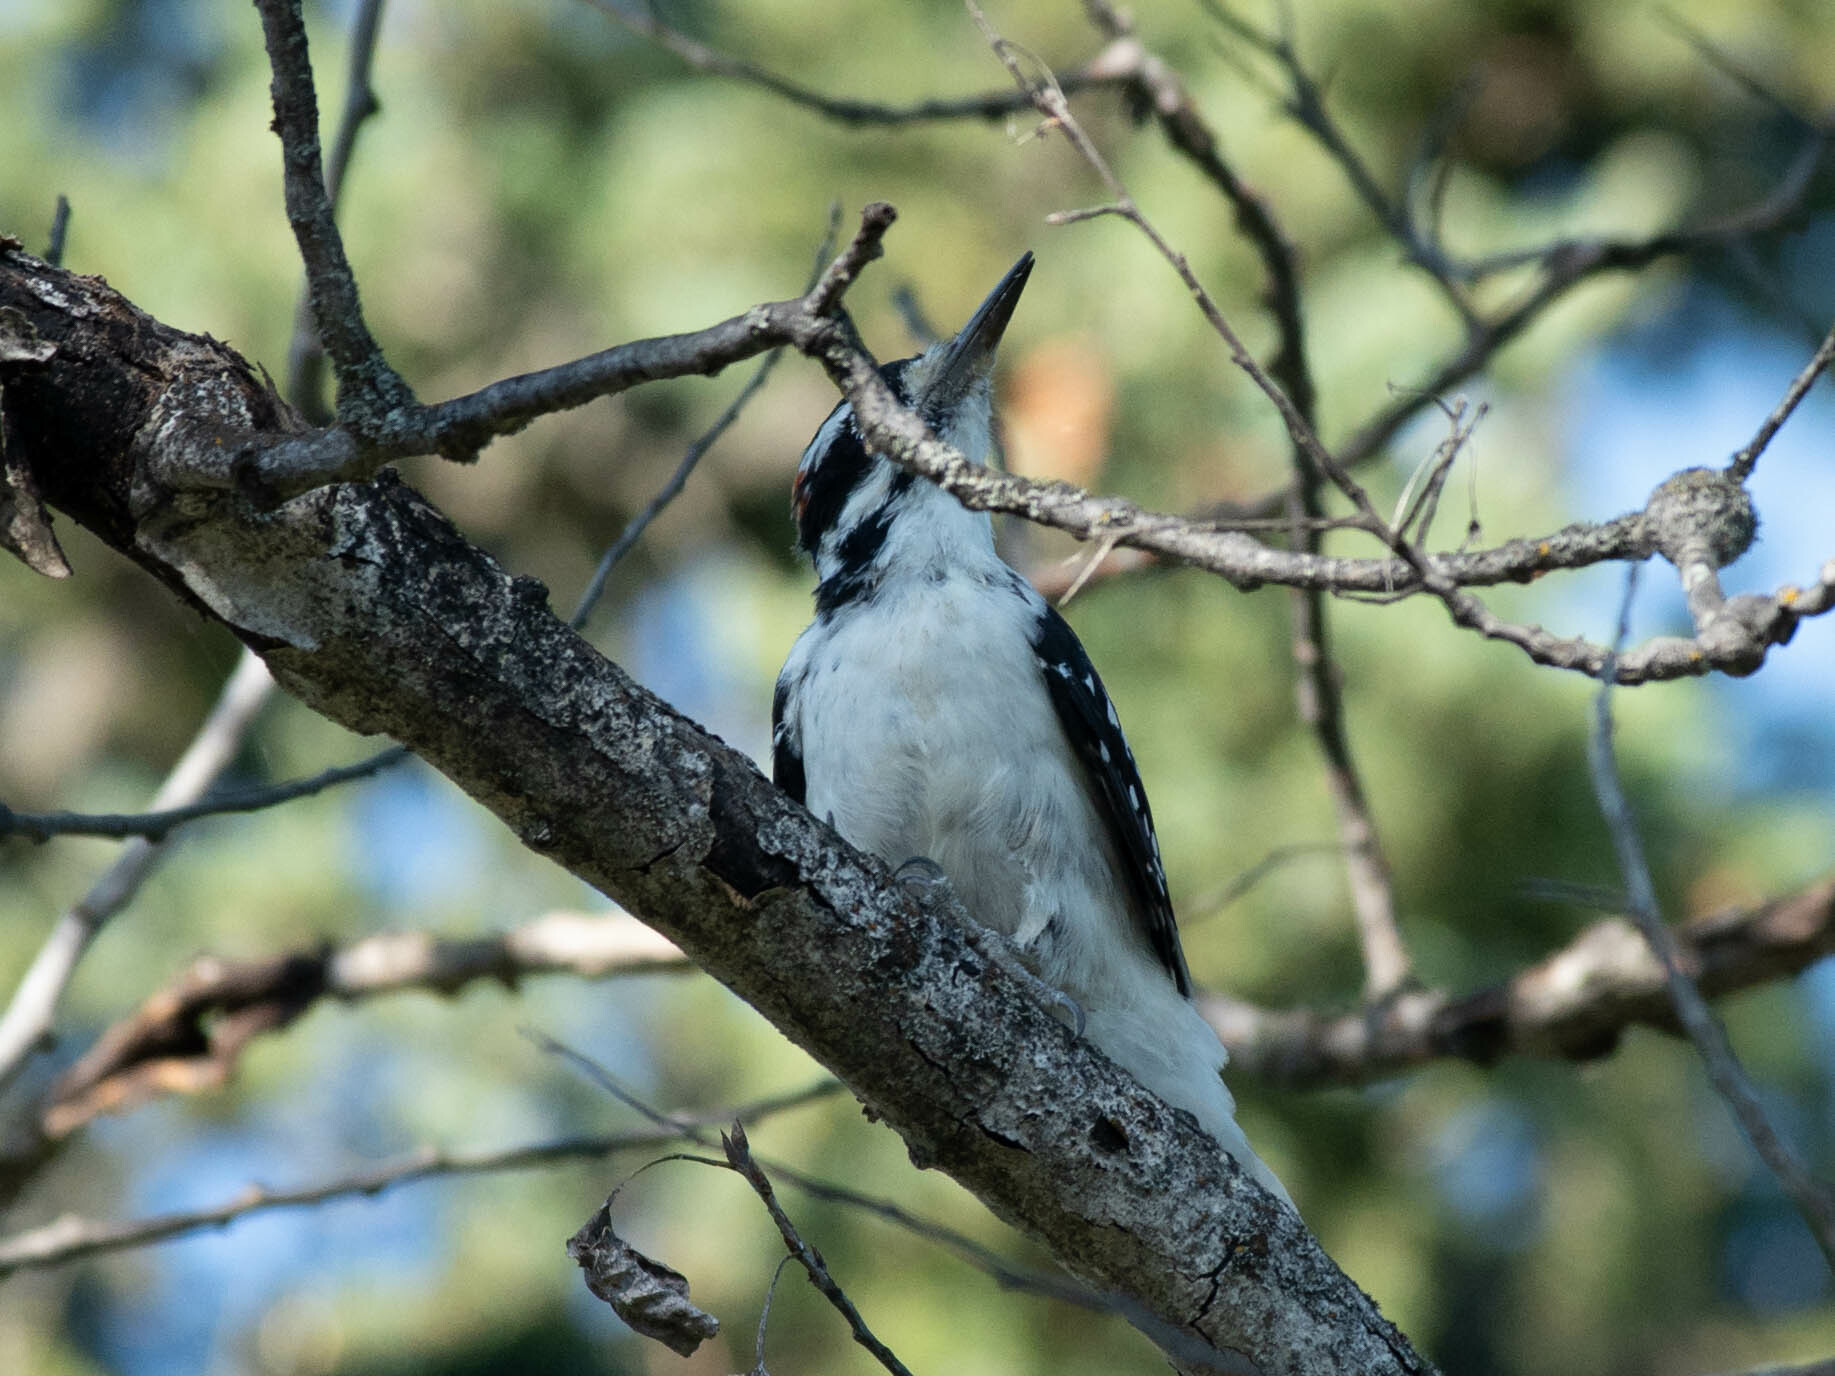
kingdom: Animalia
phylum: Chordata
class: Aves
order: Piciformes
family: Picidae
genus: Leuconotopicus
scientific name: Leuconotopicus villosus
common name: Hairy woodpecker
